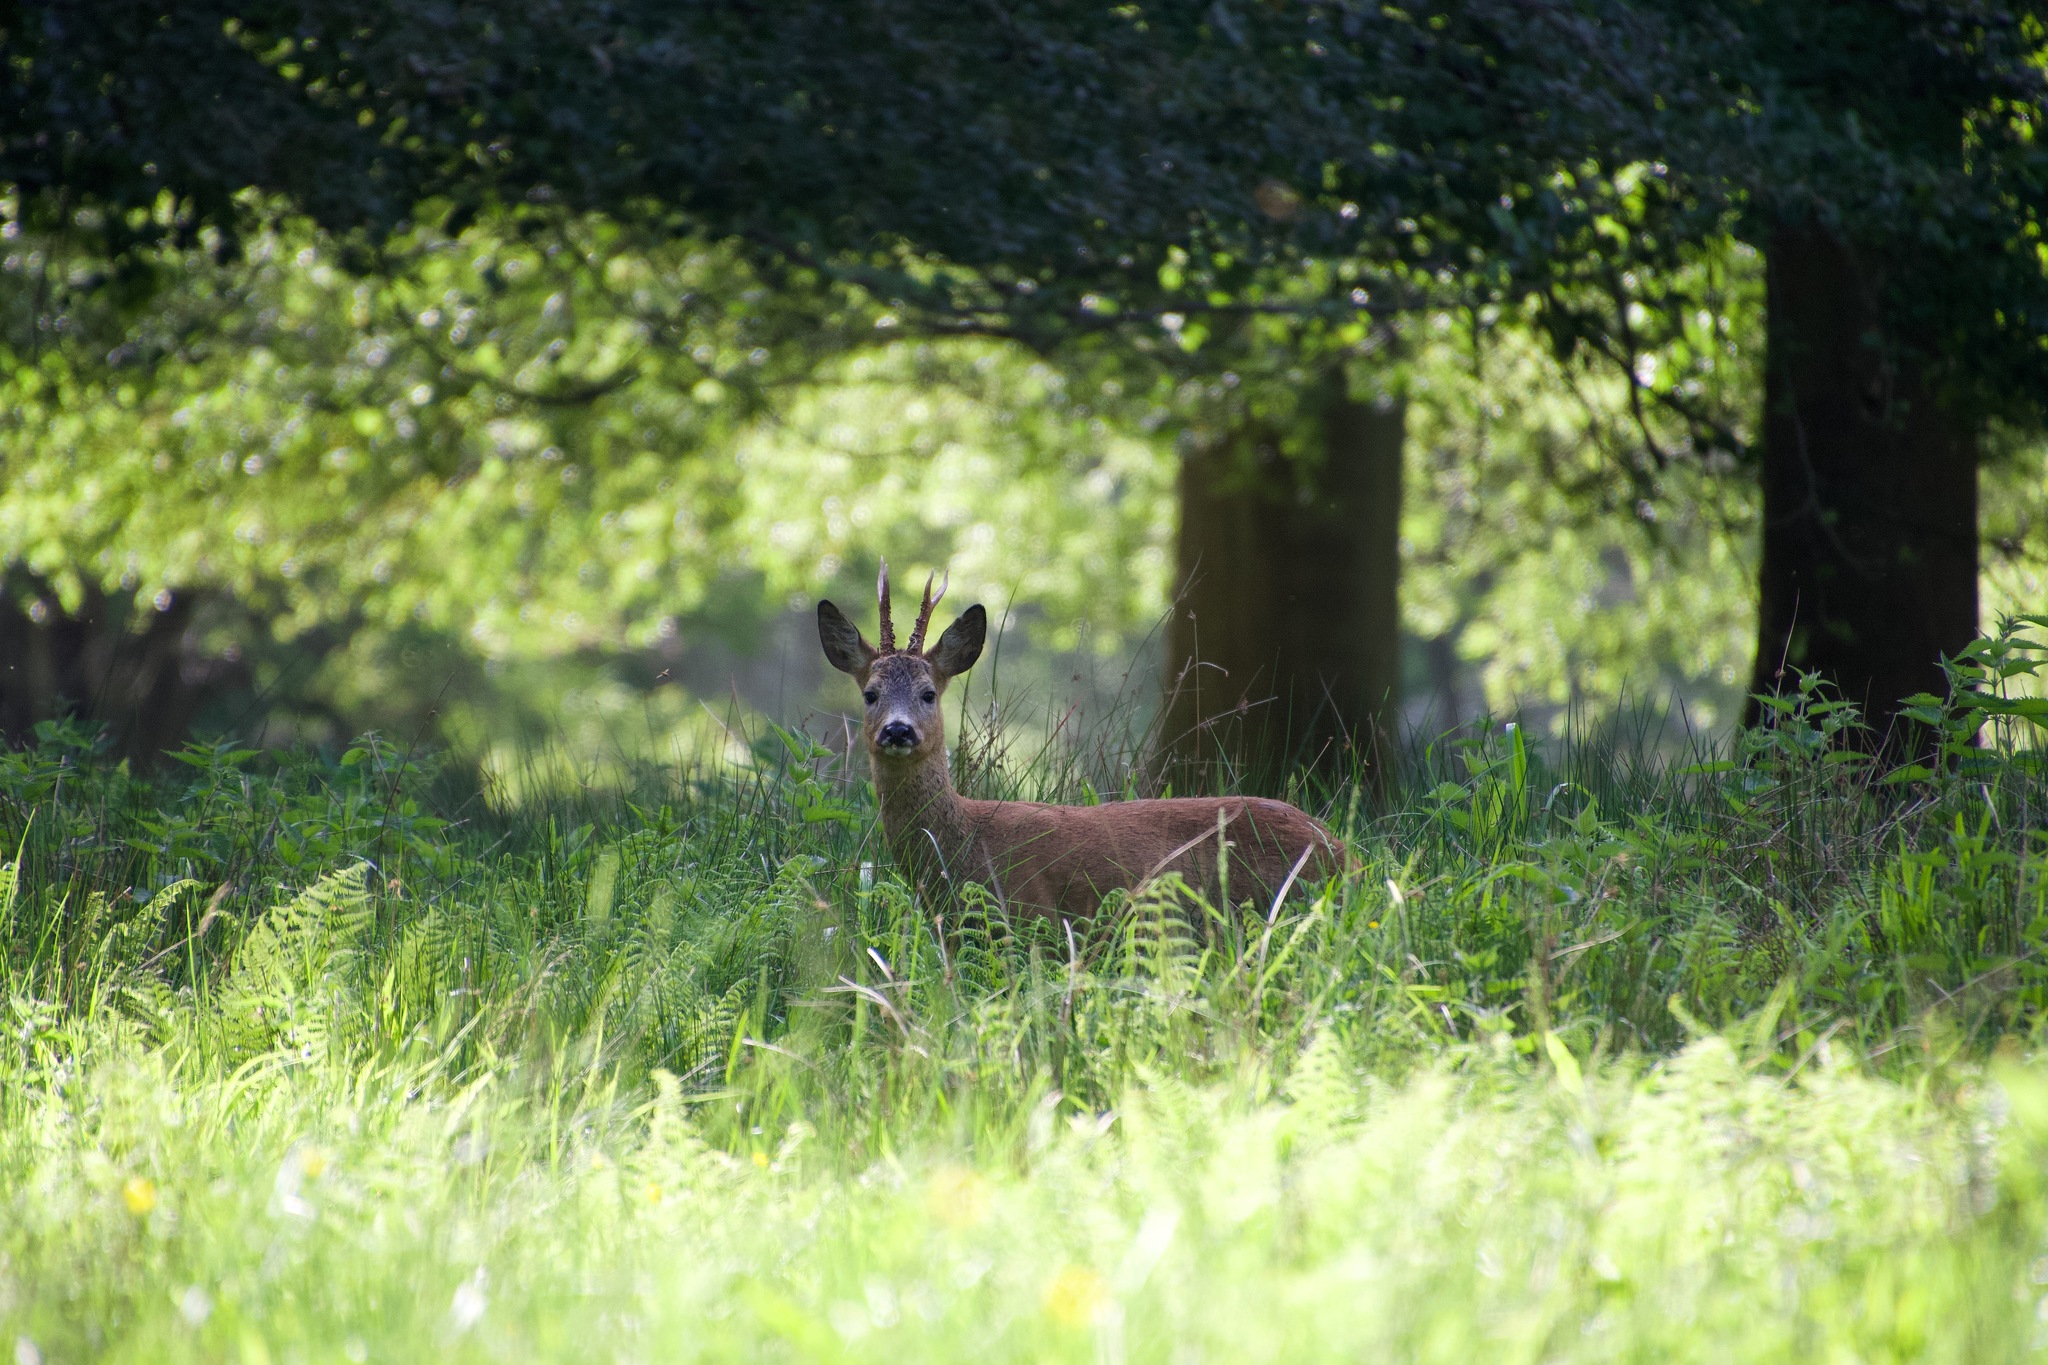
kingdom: Animalia
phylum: Chordata
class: Mammalia
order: Artiodactyla
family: Cervidae
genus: Capreolus
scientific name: Capreolus capreolus
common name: Western roe deer
